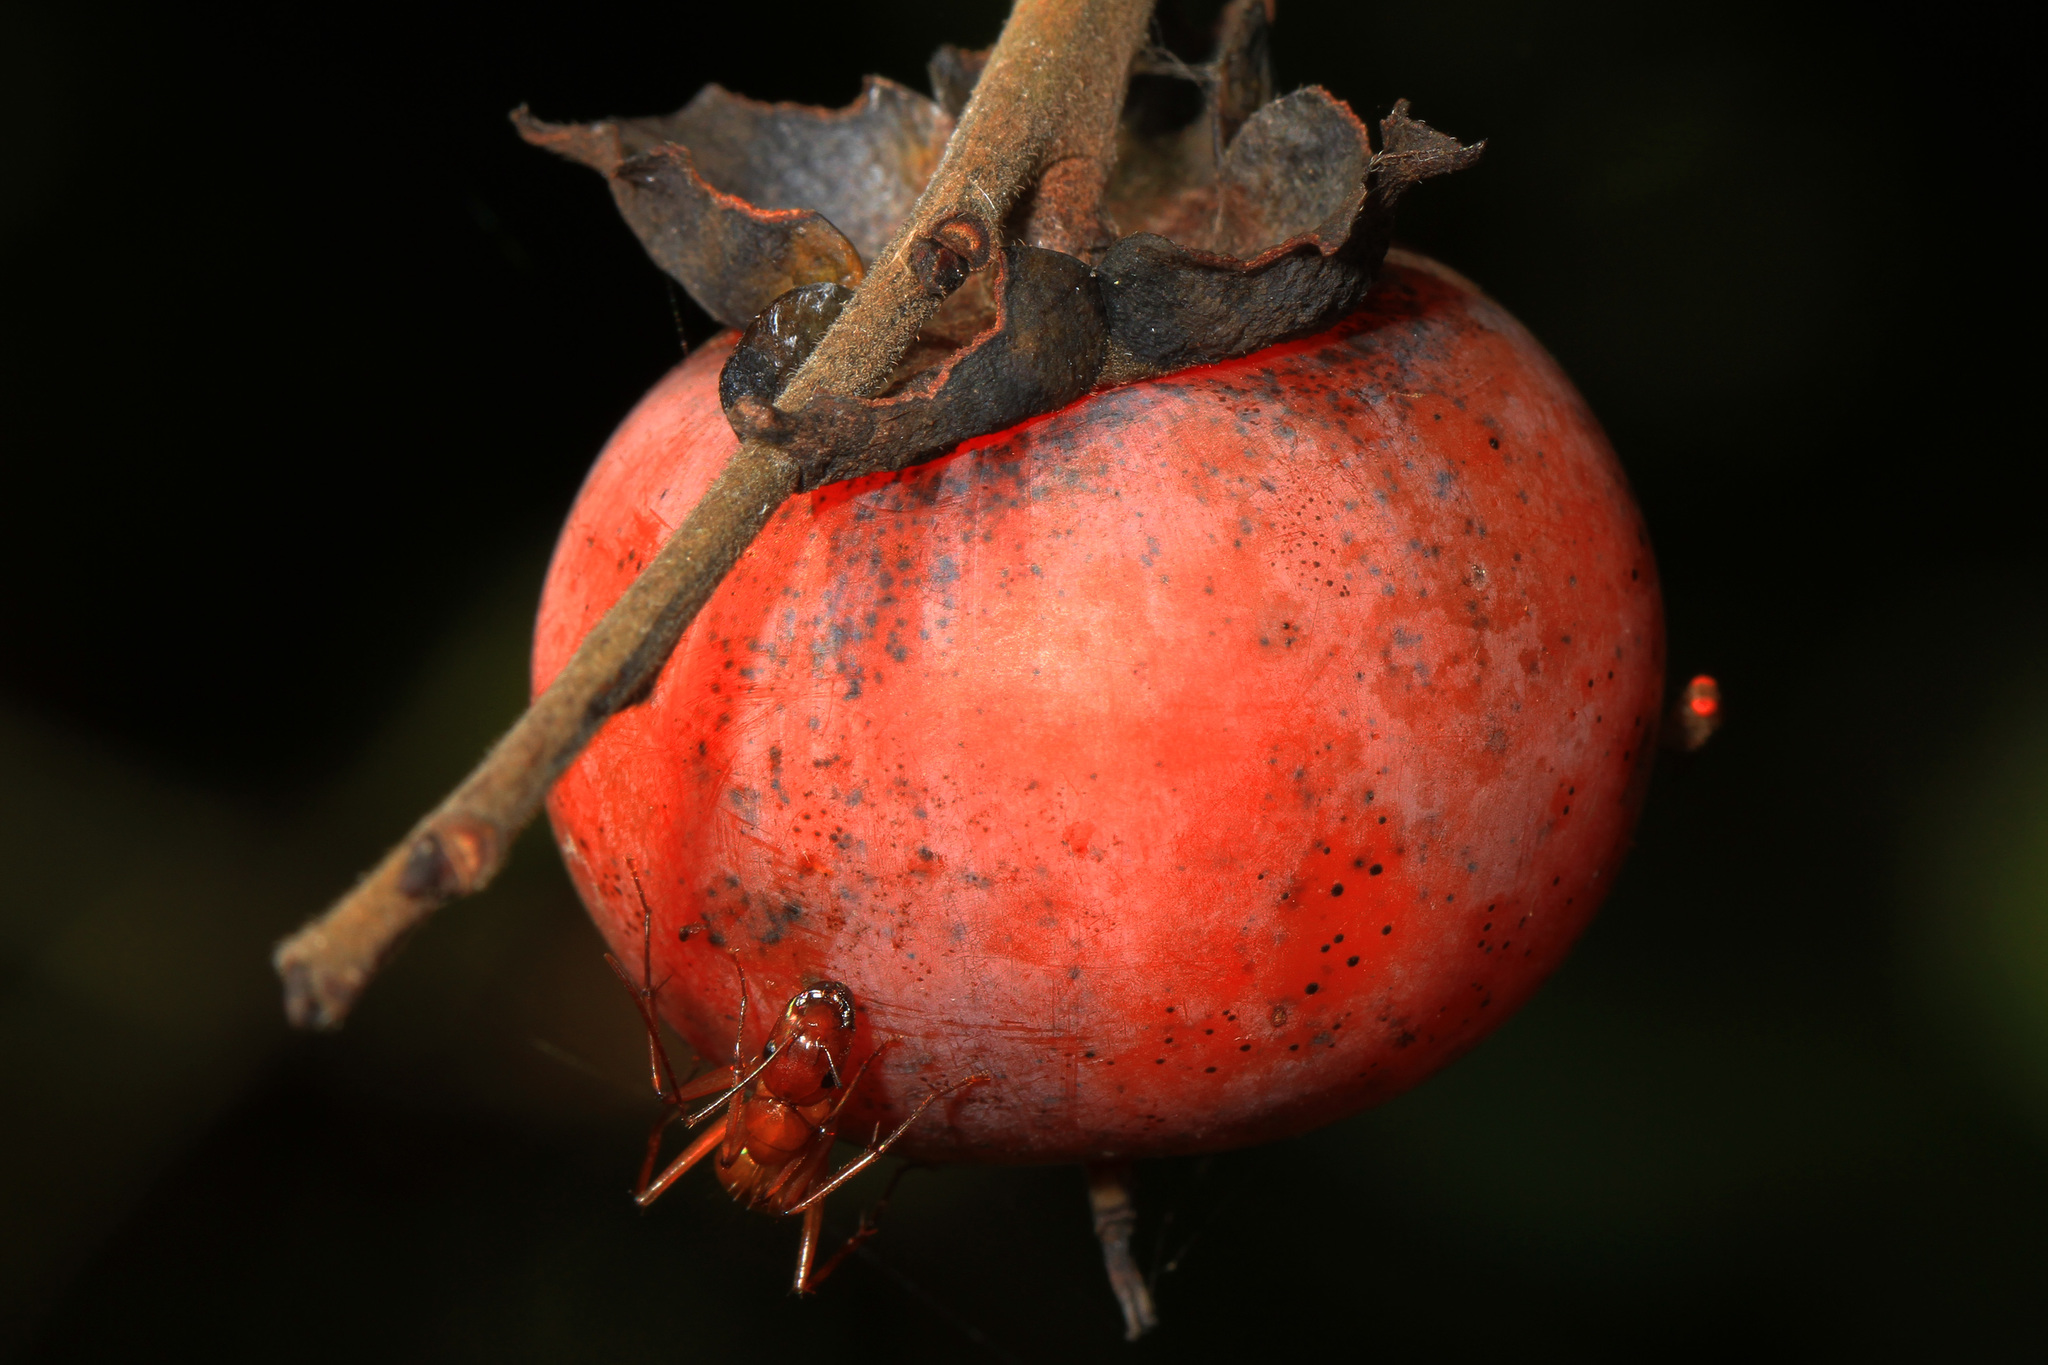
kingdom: Plantae
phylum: Tracheophyta
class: Magnoliopsida
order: Ericales
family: Ebenaceae
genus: Diospyros
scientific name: Diospyros virginiana
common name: Persimmon
